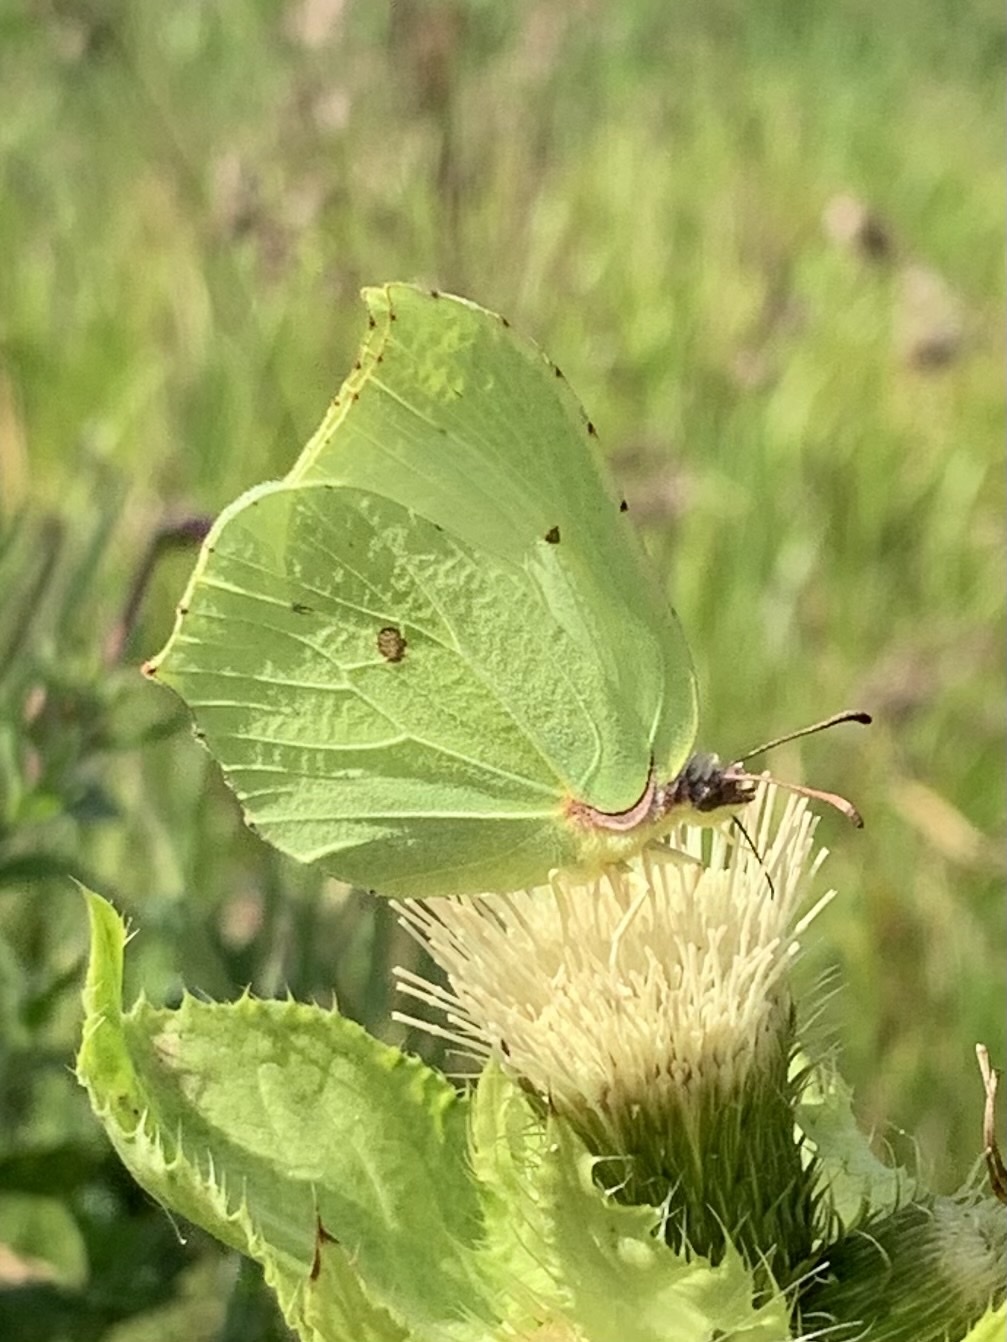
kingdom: Animalia
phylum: Arthropoda
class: Insecta
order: Lepidoptera
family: Pieridae
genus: Gonepteryx
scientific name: Gonepteryx rhamni
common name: Brimstone
